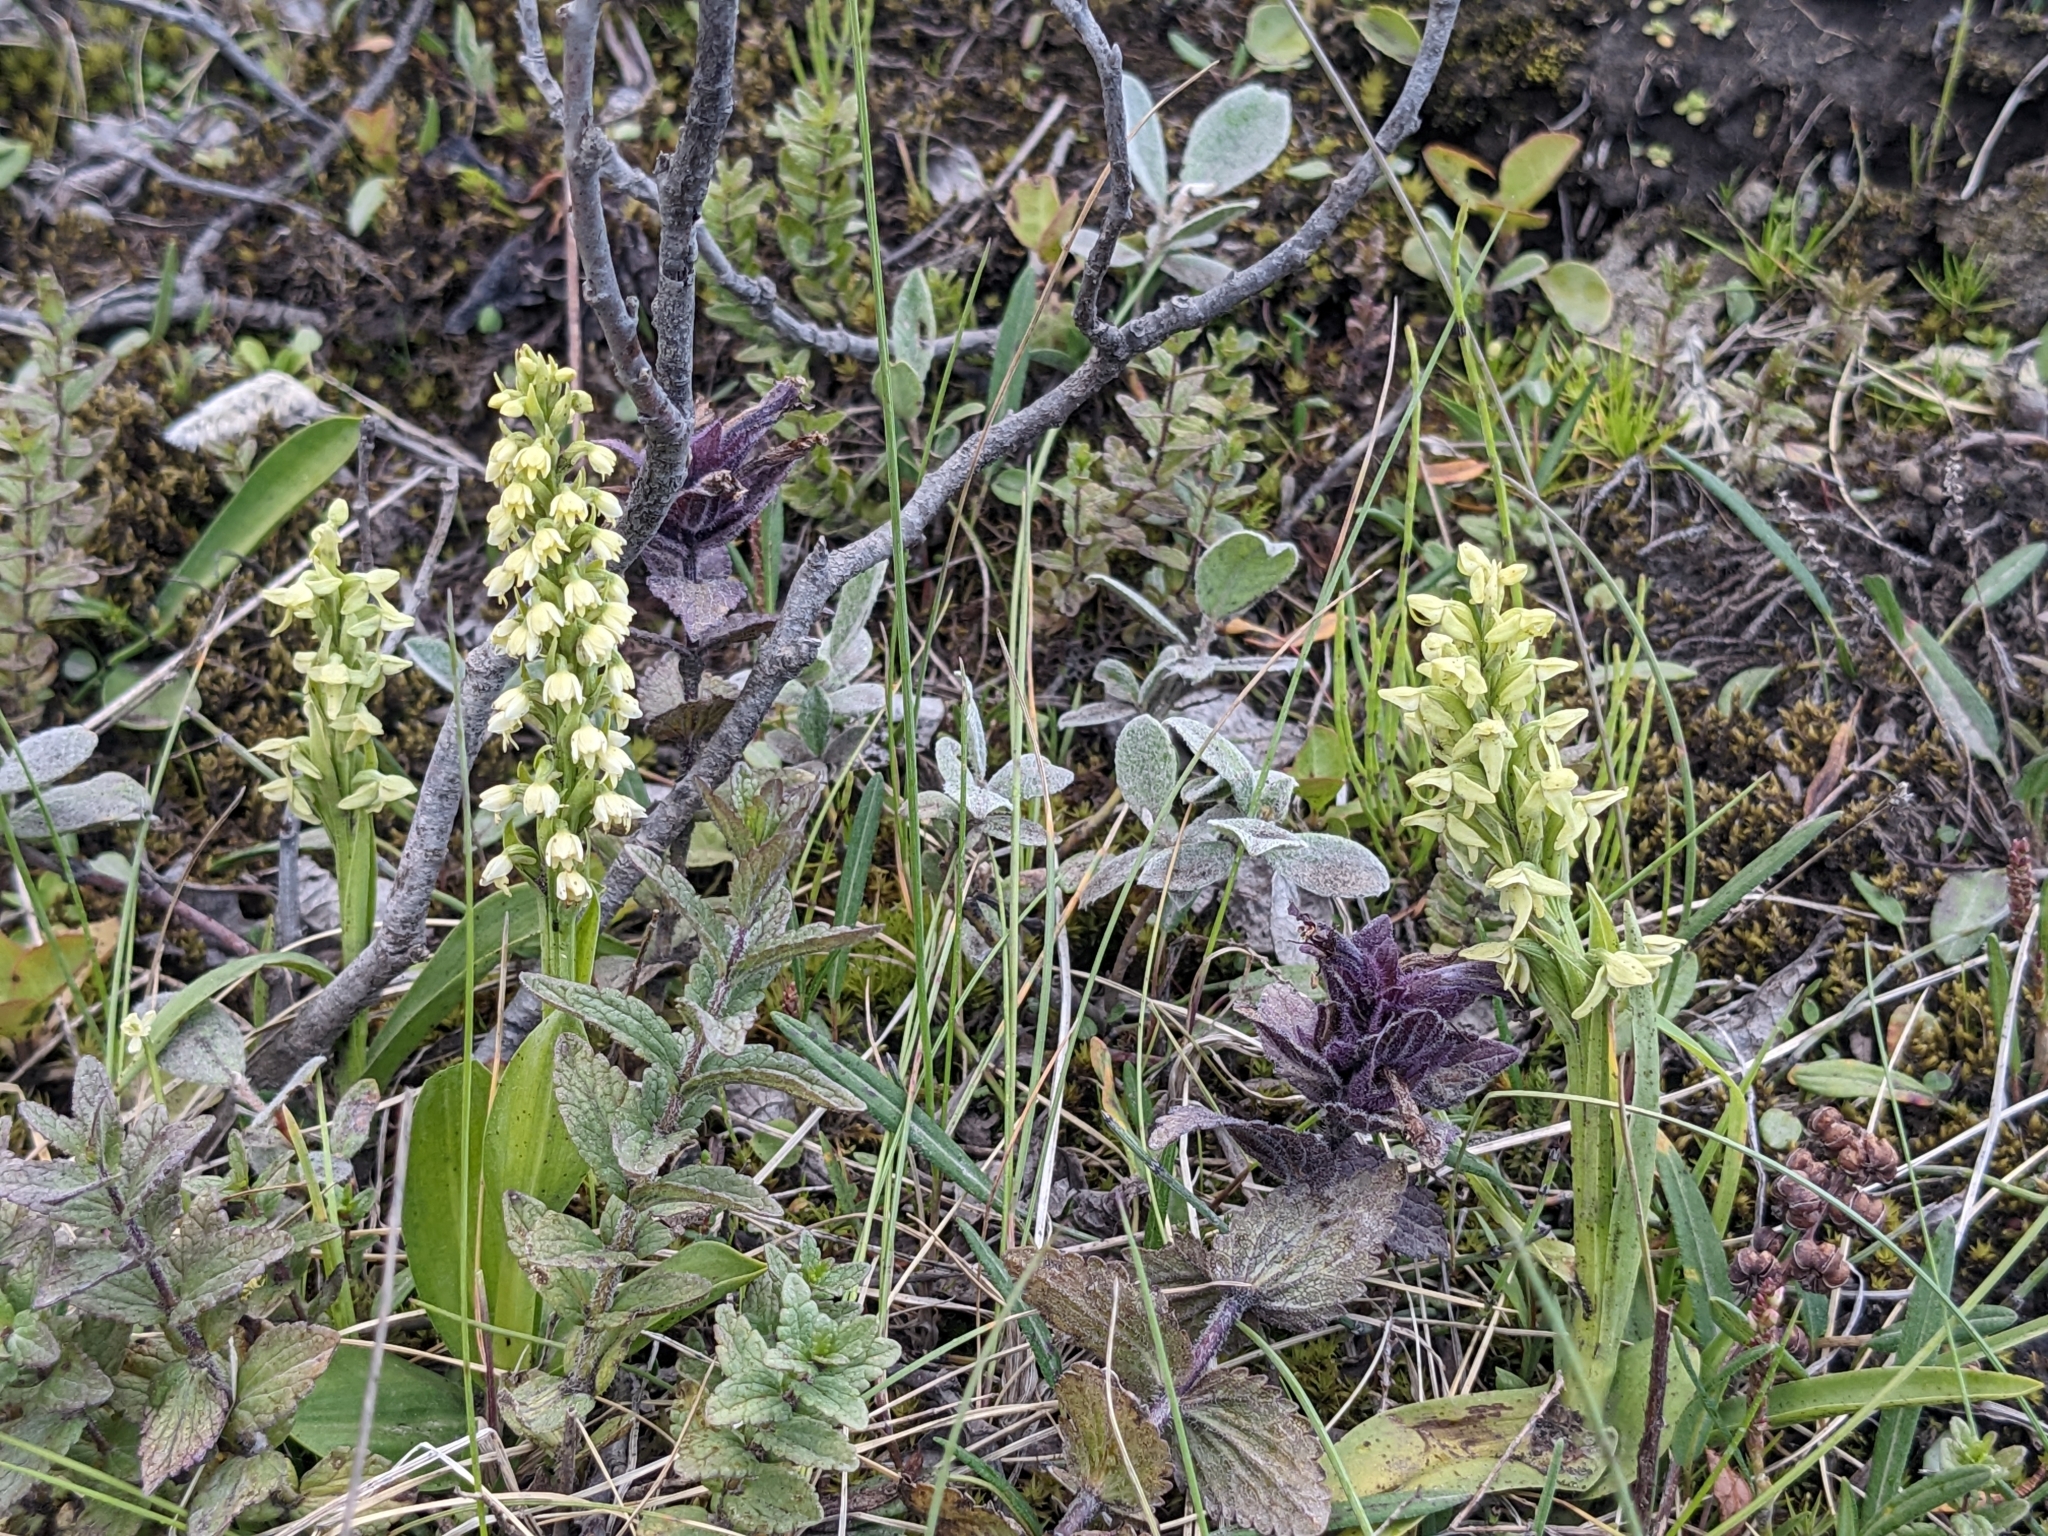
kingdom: Plantae
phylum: Tracheophyta
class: Liliopsida
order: Asparagales
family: Orchidaceae
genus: Platanthera
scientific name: Platanthera hyperborea
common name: Northern green orchid
